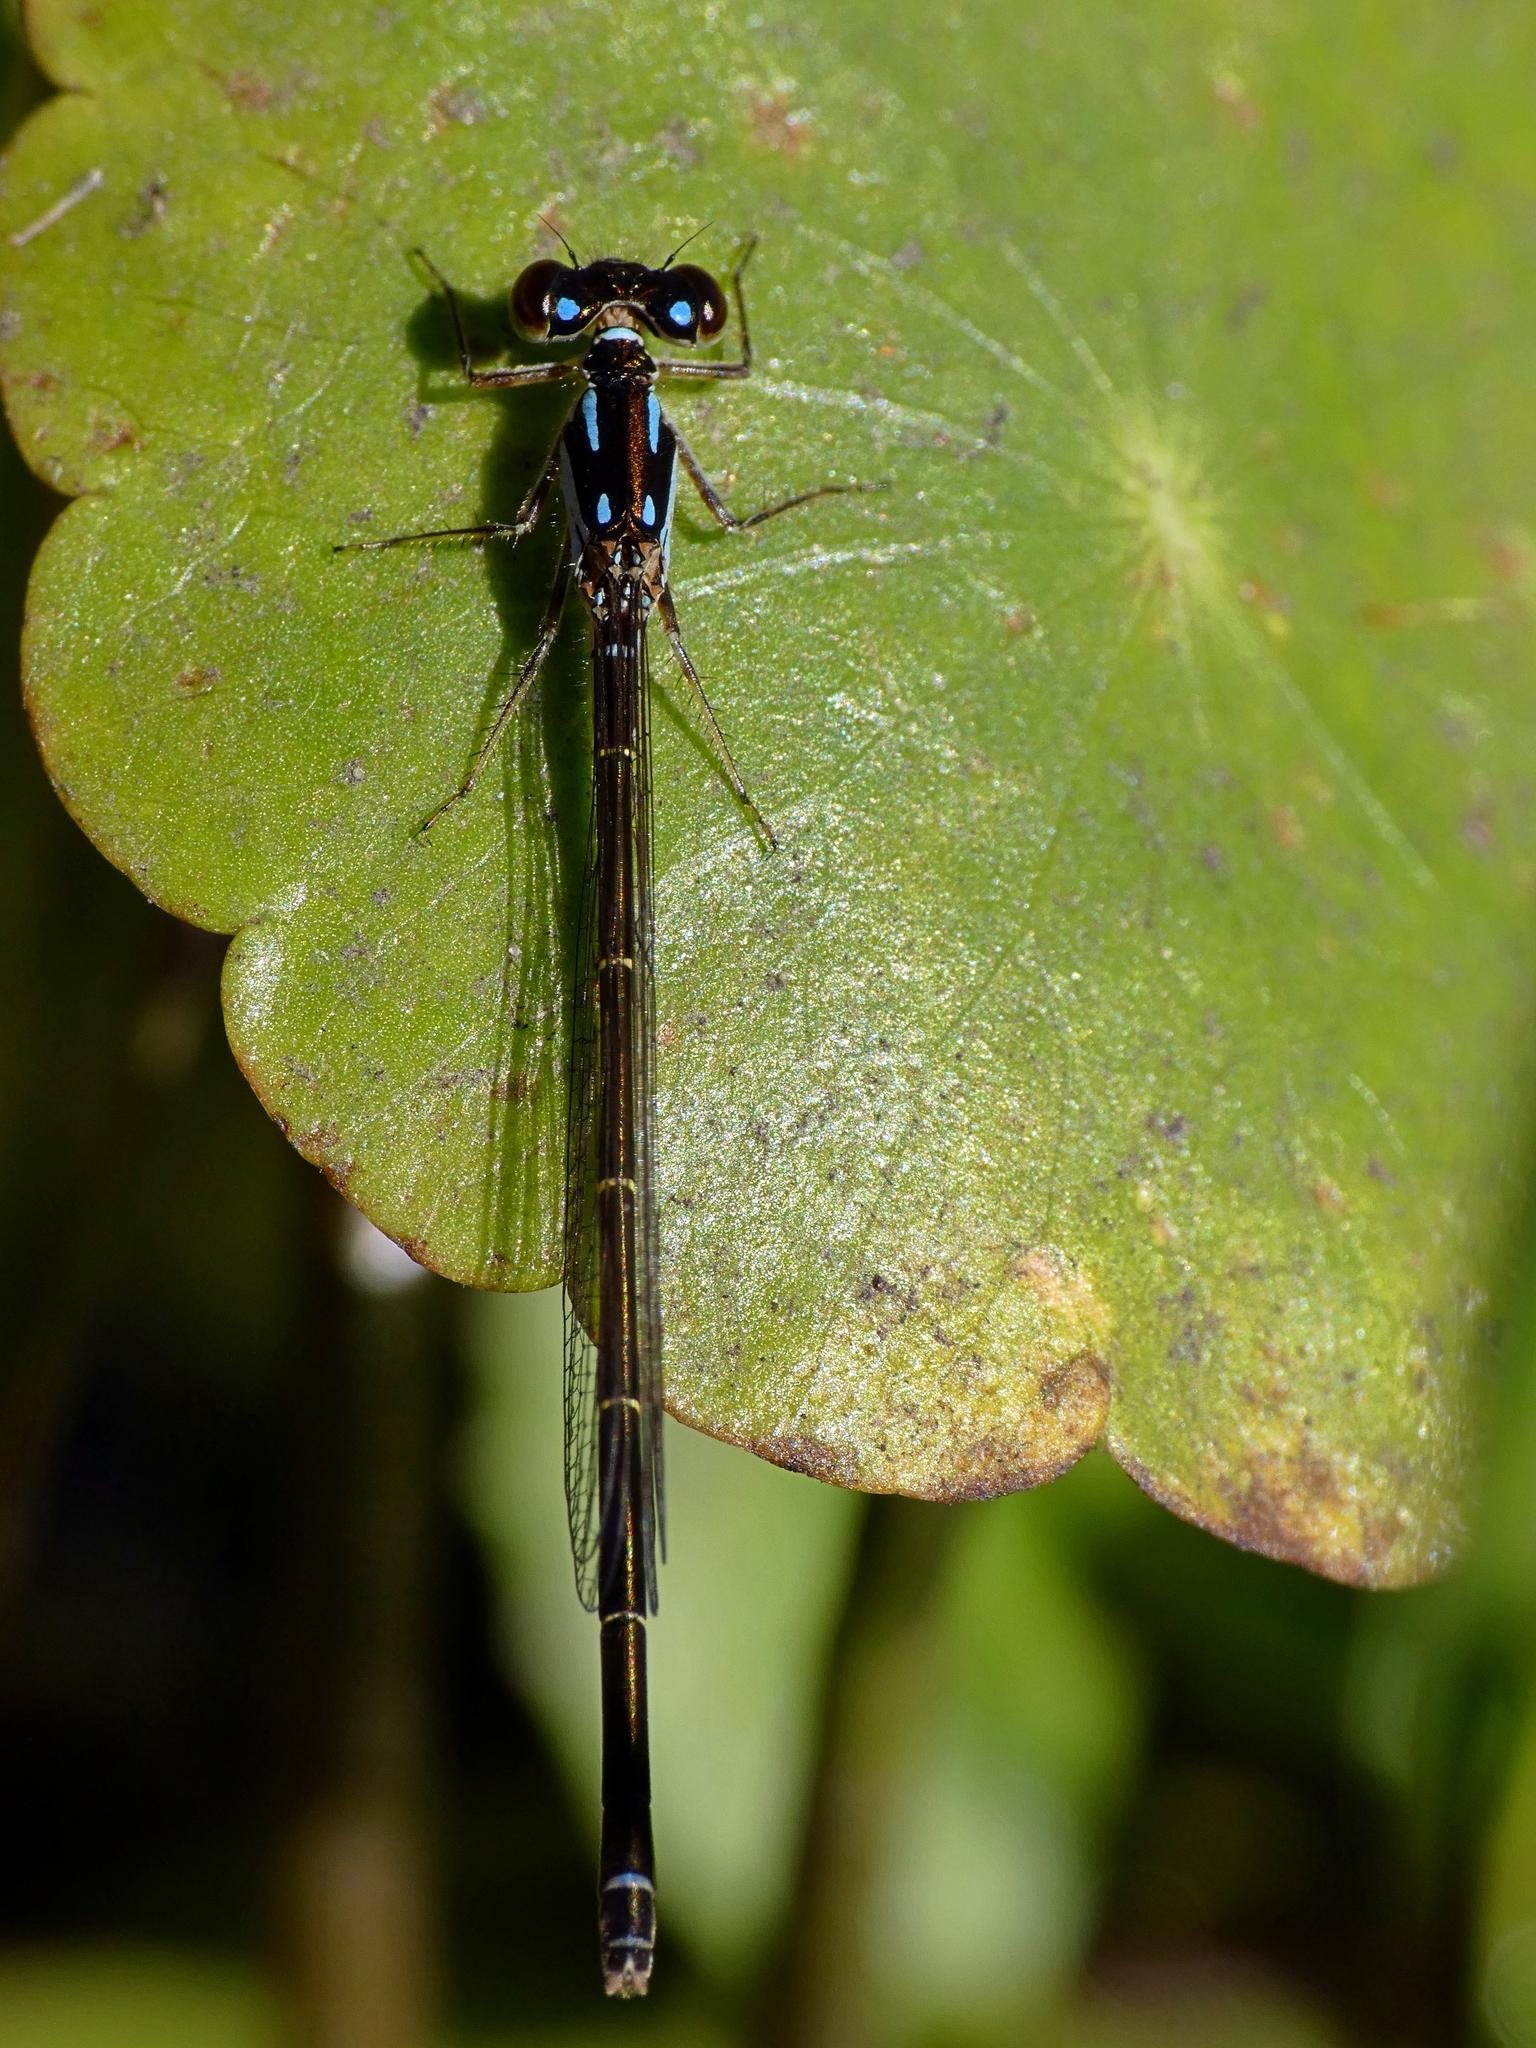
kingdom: Animalia
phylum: Arthropoda
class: Insecta
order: Odonata
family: Coenagrionidae
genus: Ischnura
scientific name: Ischnura posita
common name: Fragile forktail
